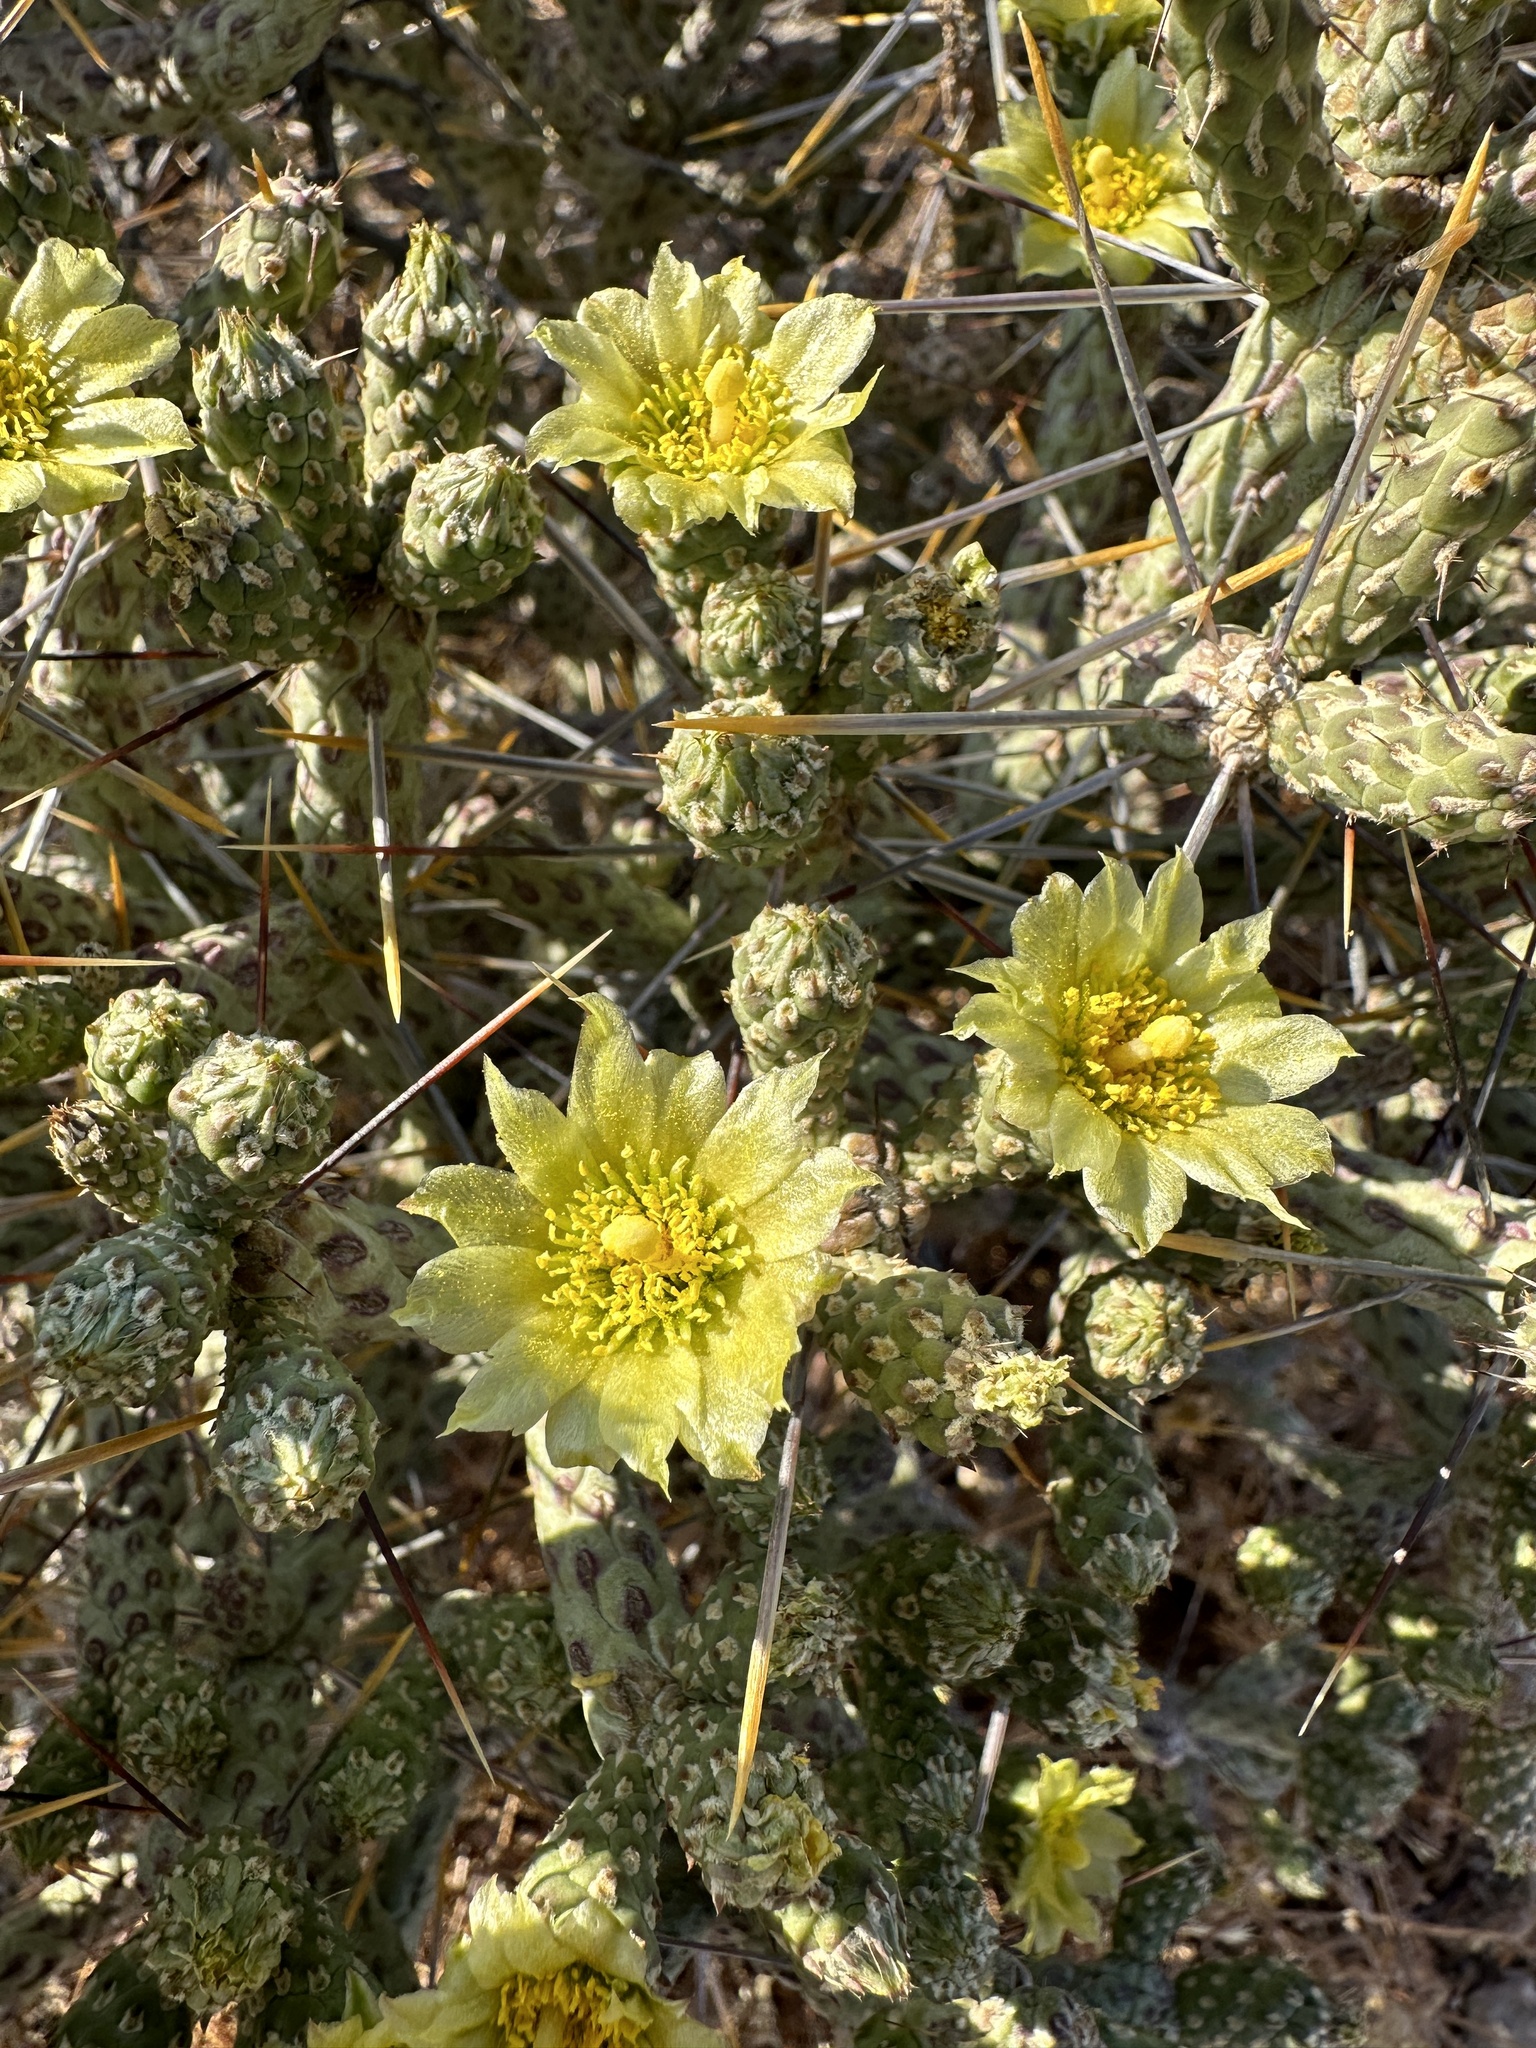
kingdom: Plantae
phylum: Tracheophyta
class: Magnoliopsida
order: Caryophyllales
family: Cactaceae
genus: Cylindropuntia
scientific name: Cylindropuntia ramosissima
